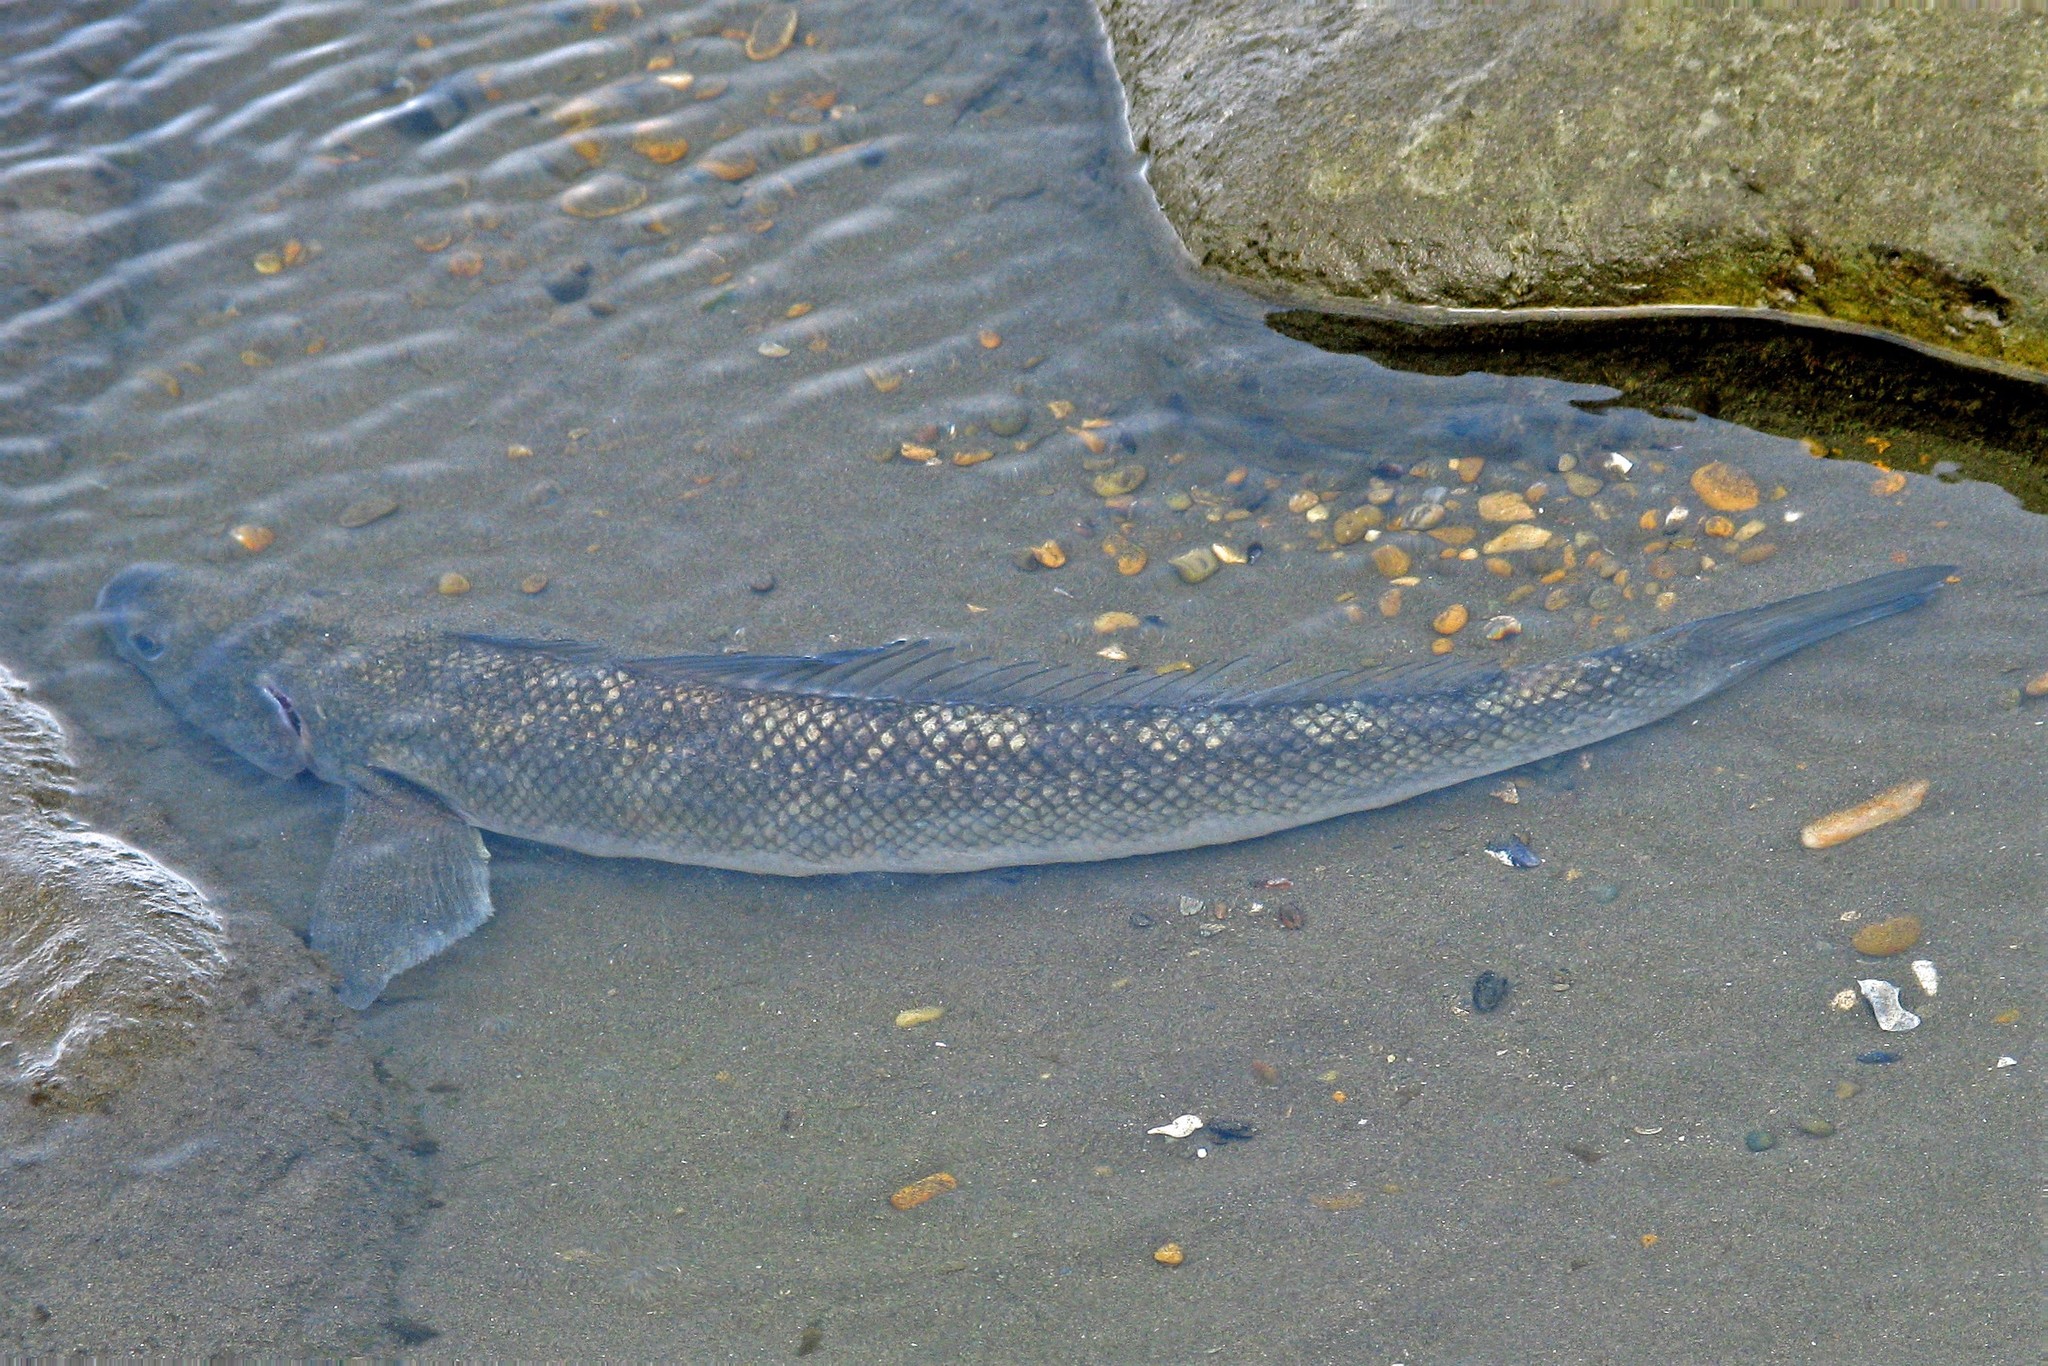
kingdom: Animalia
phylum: Chordata
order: Perciformes
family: Eleginopsidae
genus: Eleginops
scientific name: Eleginops maclovinus
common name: Patagonian blennie
